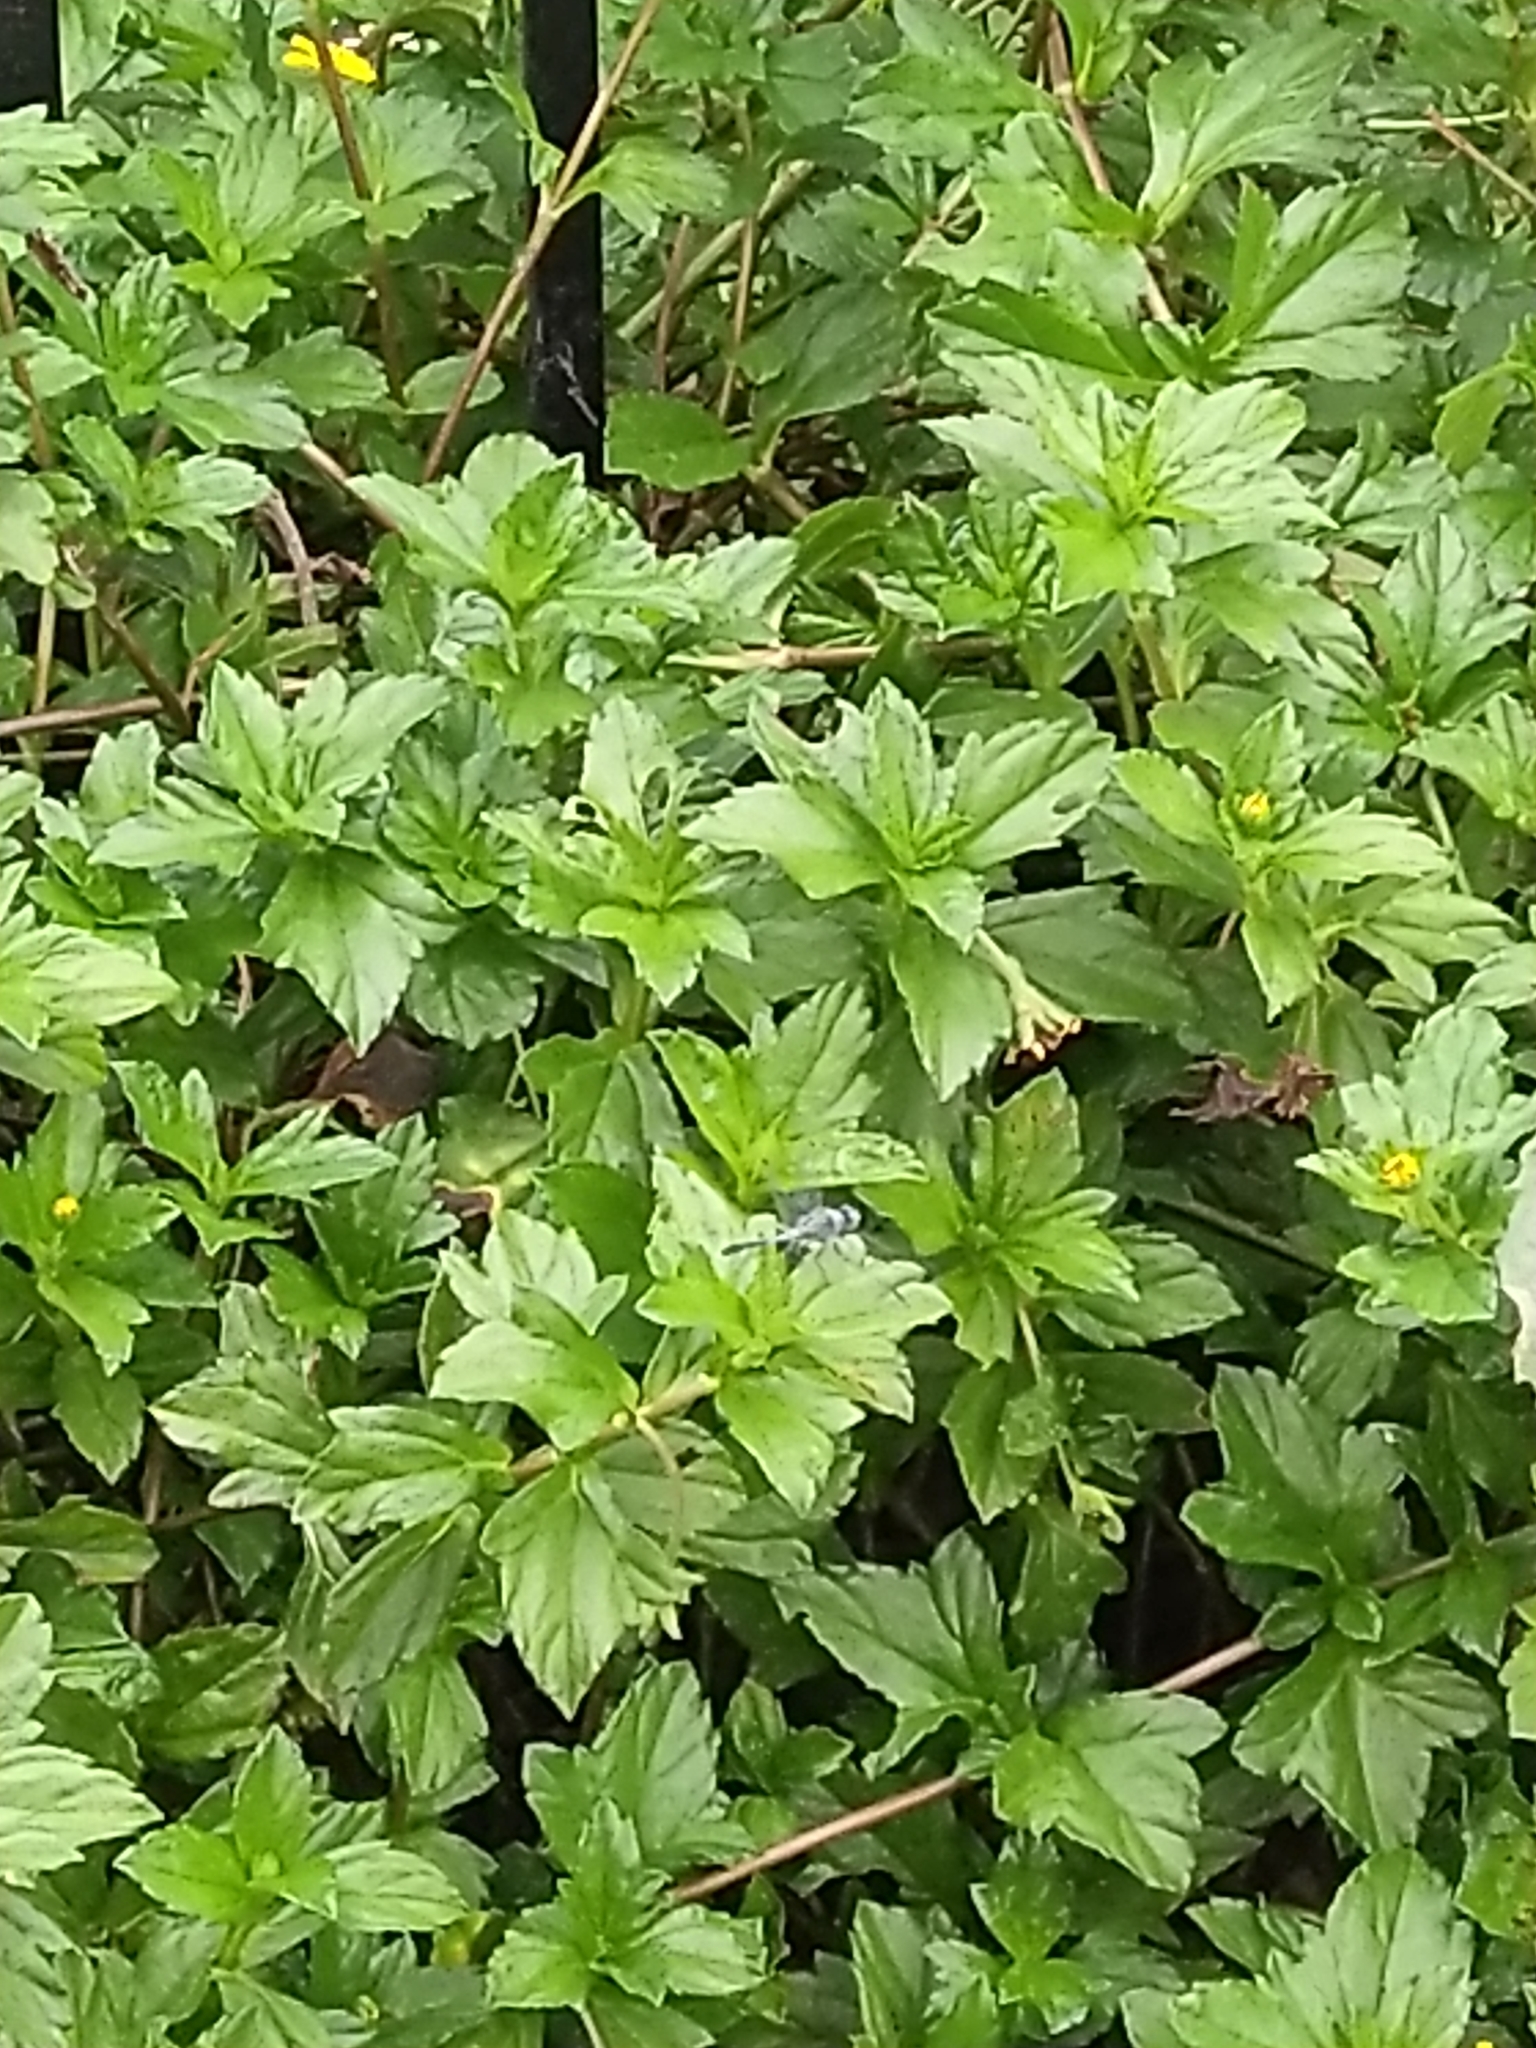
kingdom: Animalia
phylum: Arthropoda
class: Insecta
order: Odonata
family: Libellulidae
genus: Diplacodes
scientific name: Diplacodes trivialis
